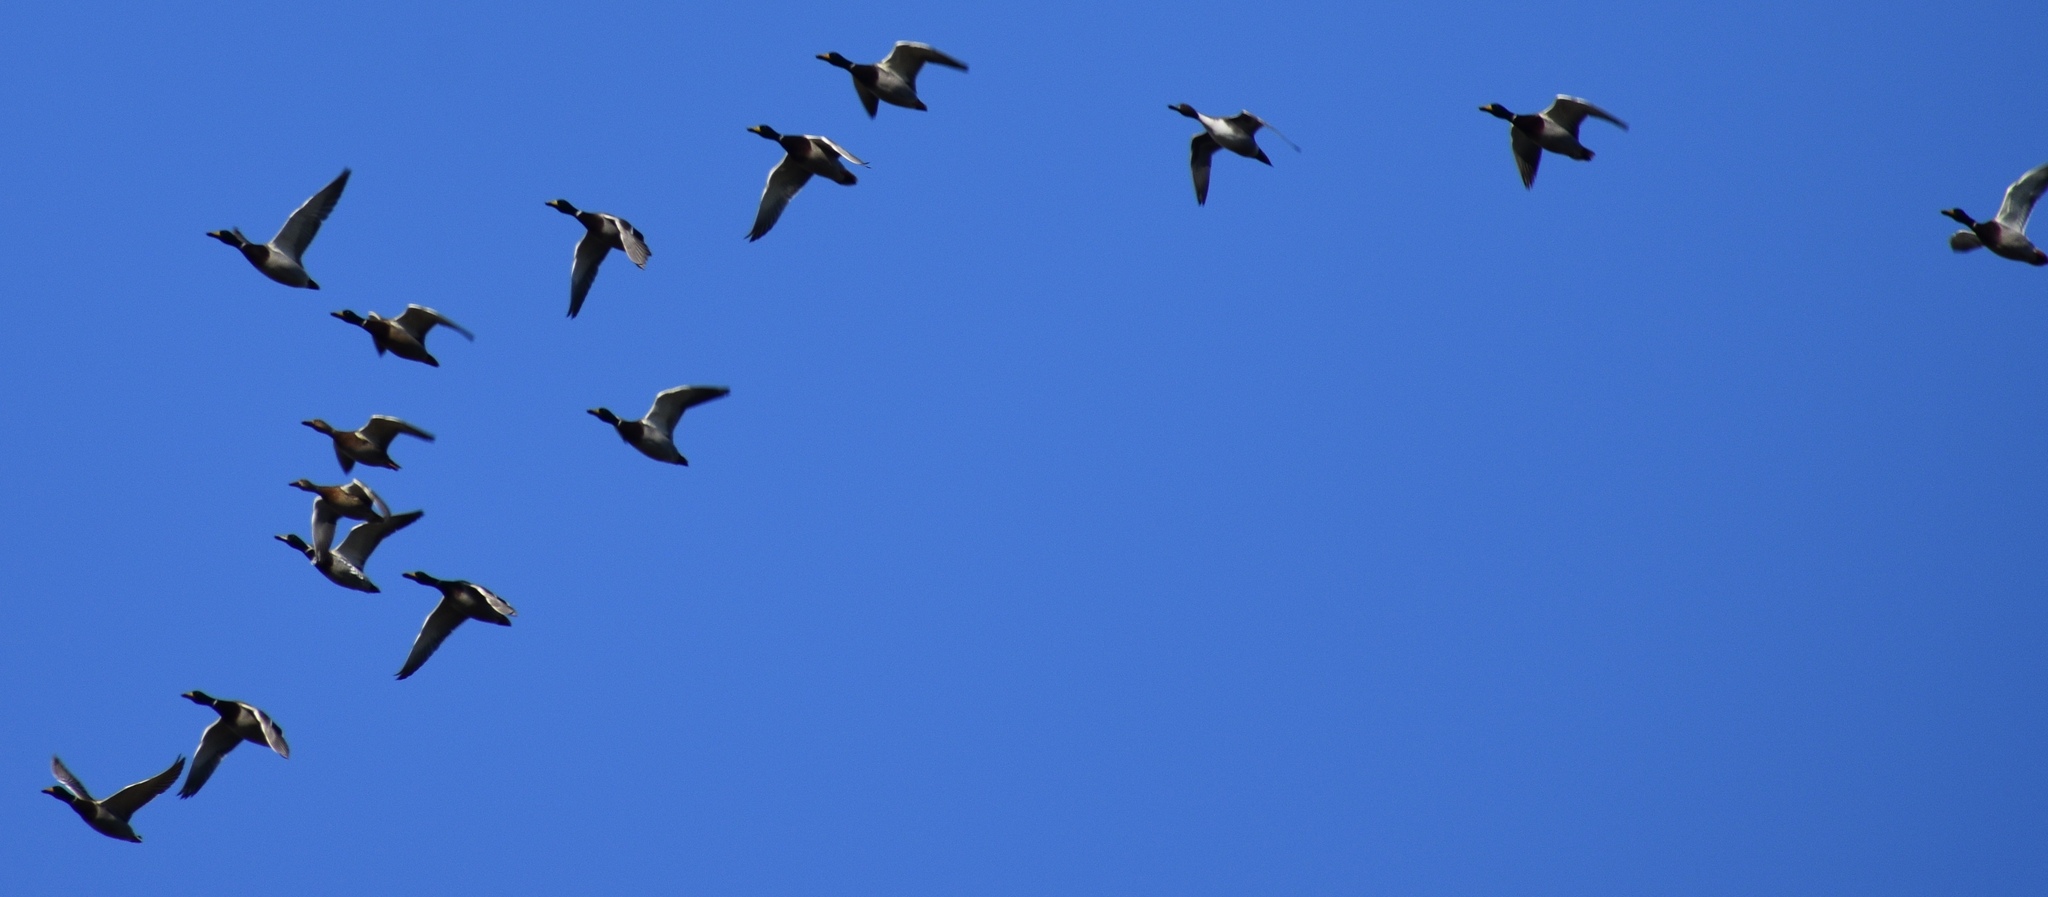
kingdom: Animalia
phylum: Chordata
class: Aves
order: Anseriformes
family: Anatidae
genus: Anas
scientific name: Anas platyrhynchos
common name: Mallard
